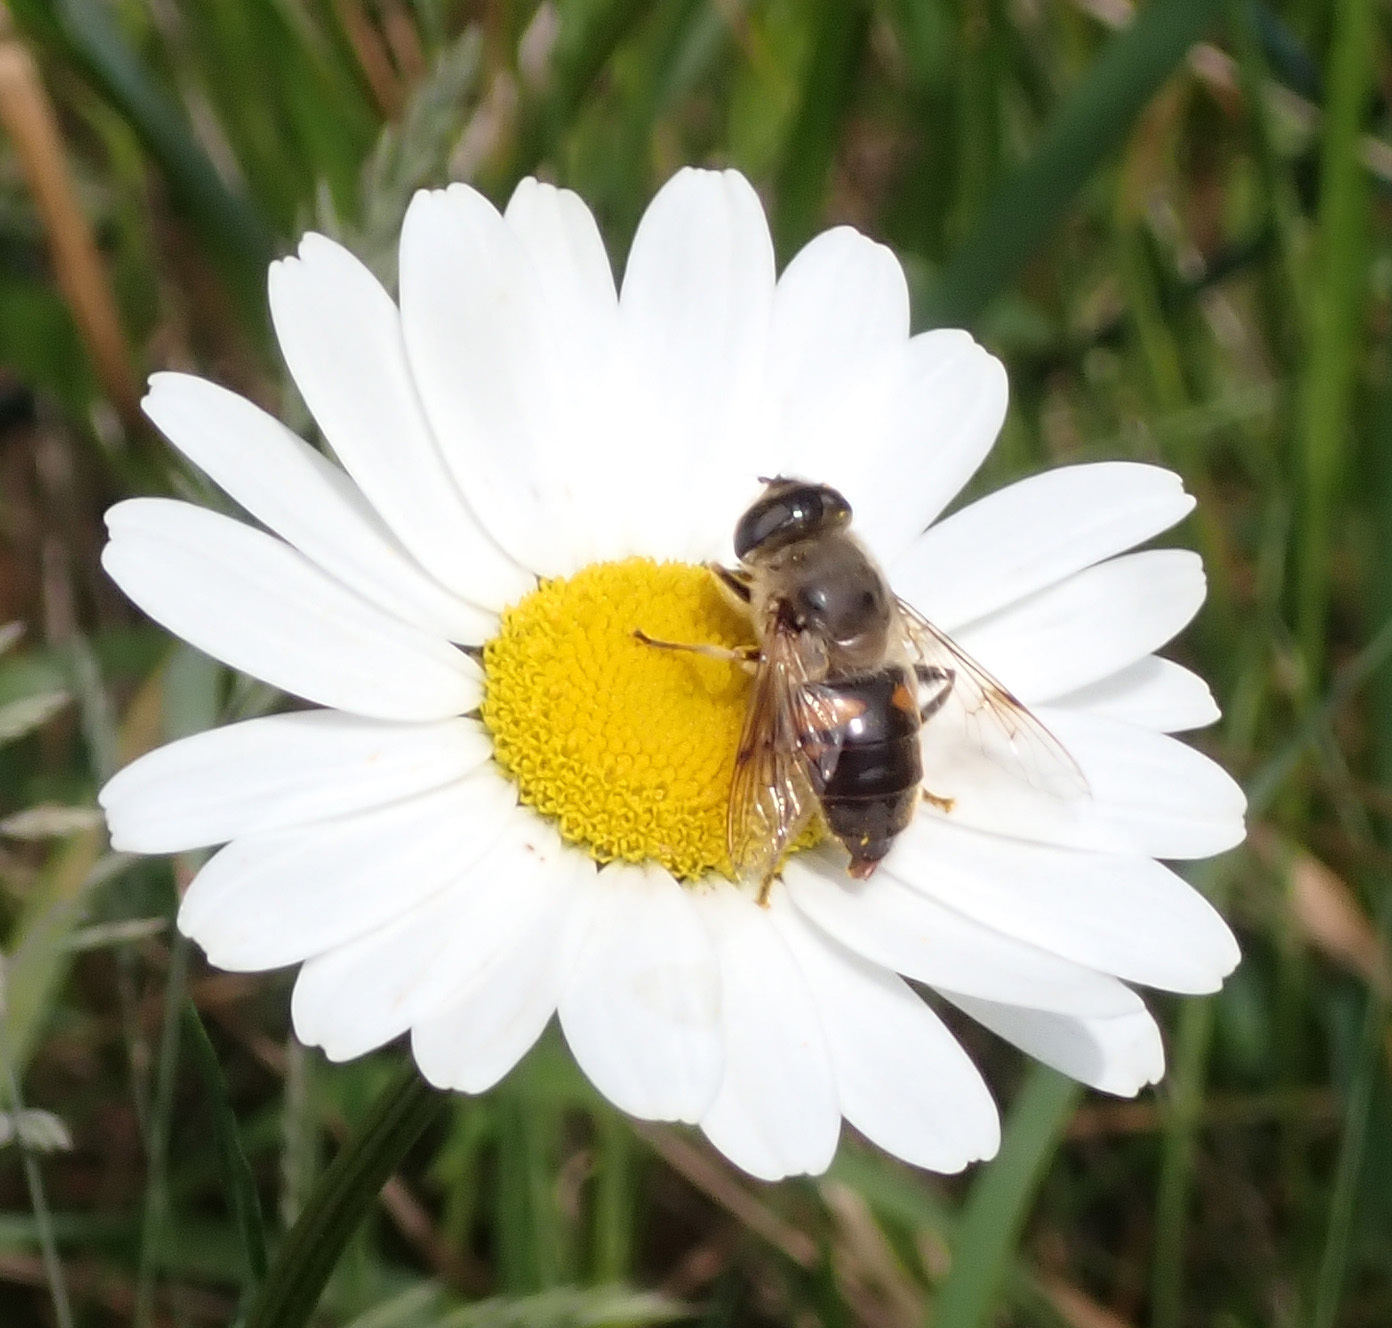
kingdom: Animalia
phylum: Arthropoda
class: Insecta
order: Diptera
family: Syrphidae
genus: Eristalis
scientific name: Eristalis tenax
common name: Drone fly
